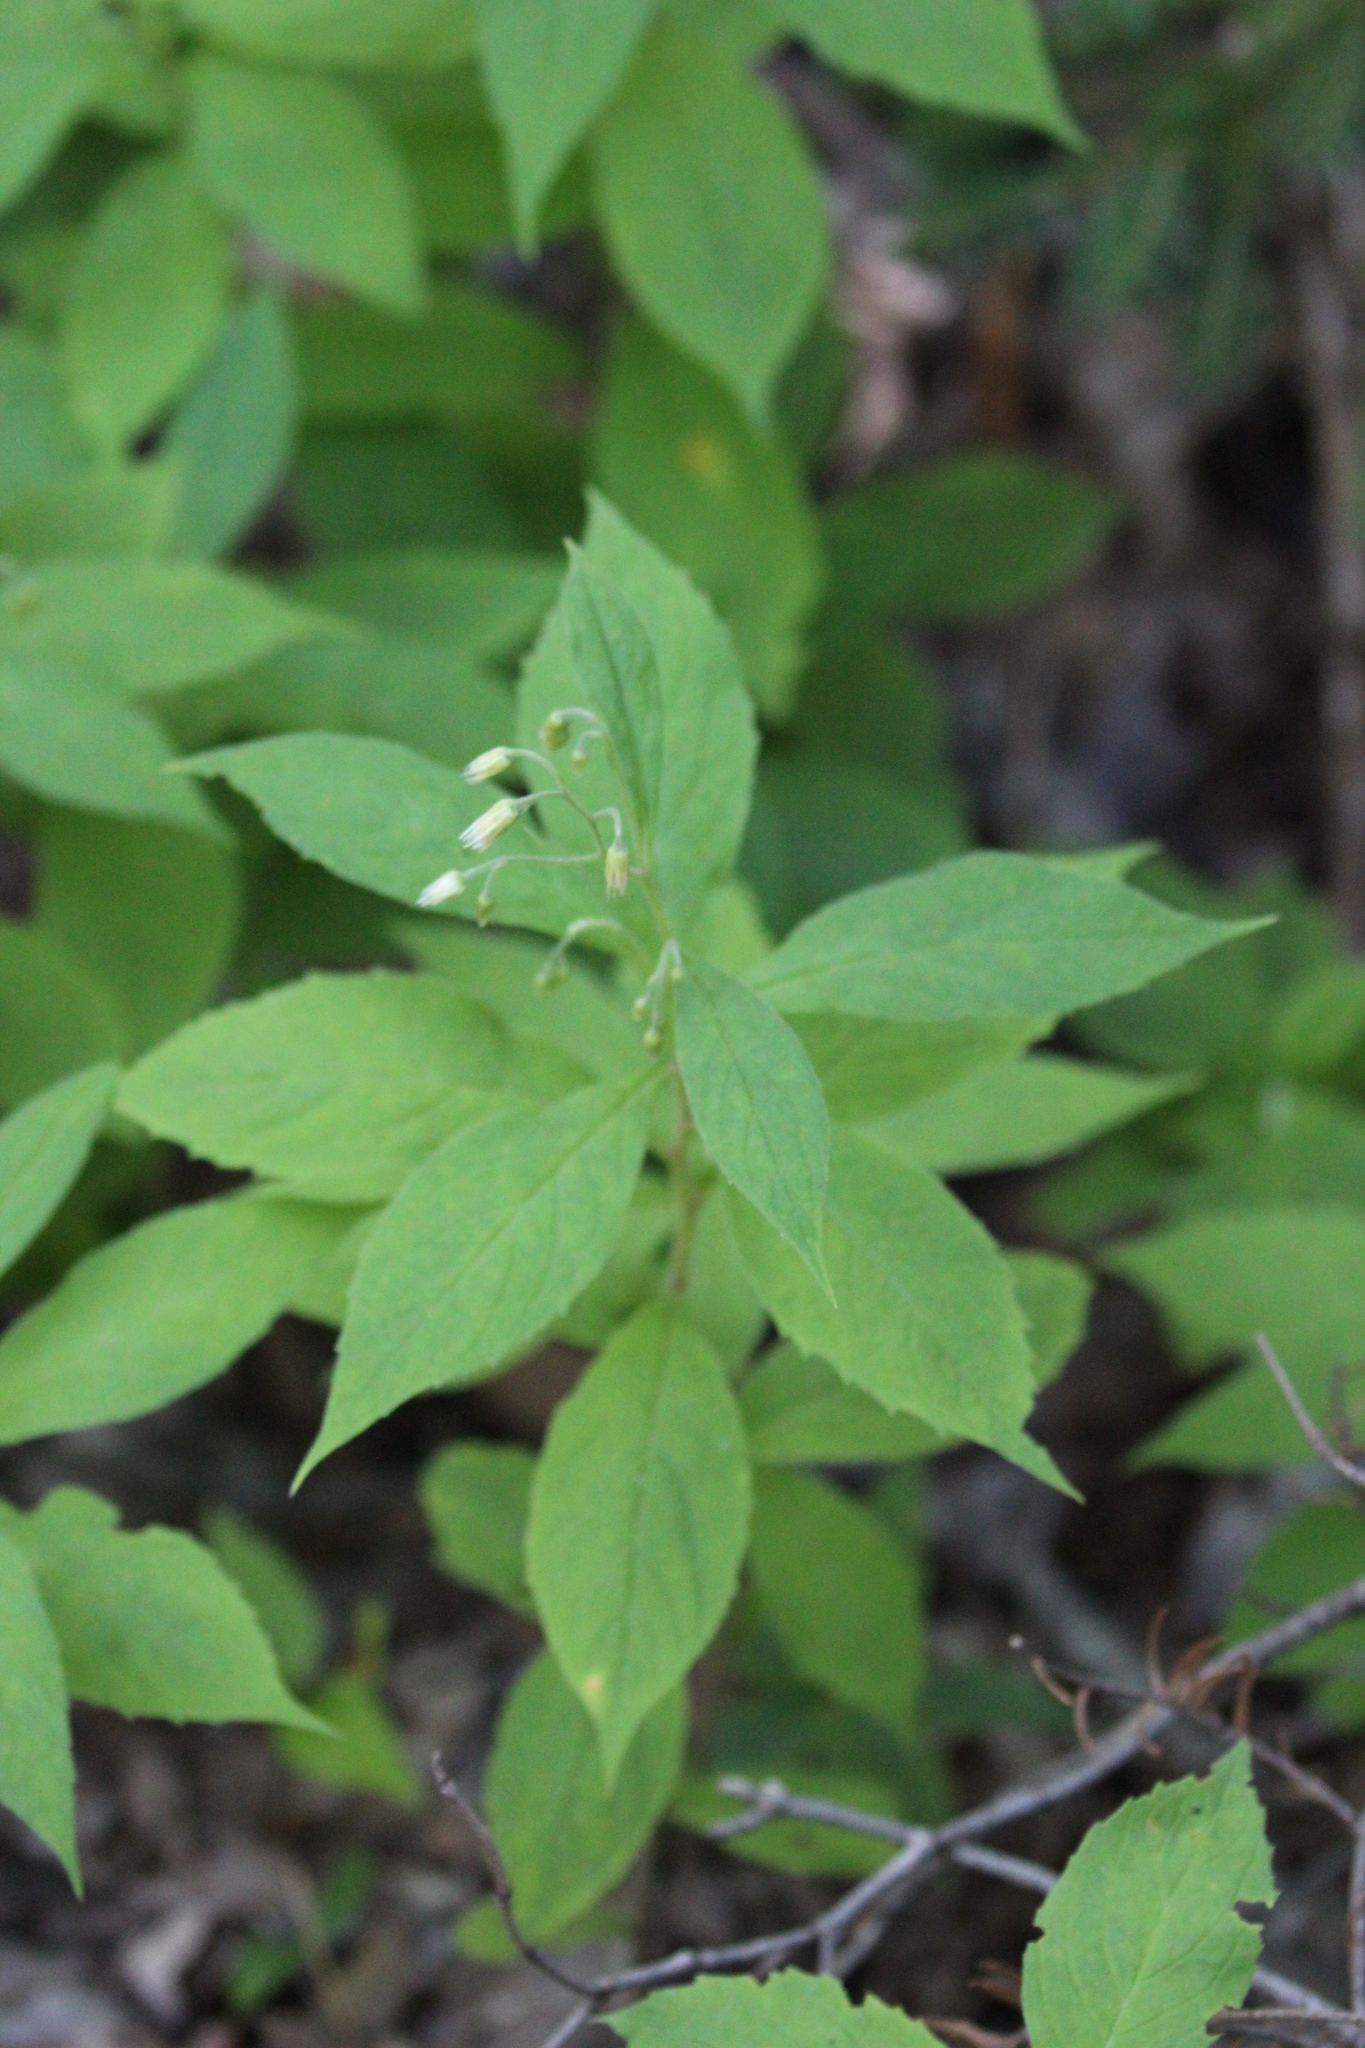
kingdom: Plantae
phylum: Tracheophyta
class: Magnoliopsida
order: Asterales
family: Asteraceae
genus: Oclemena
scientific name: Oclemena acuminata
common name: Mountain aster
